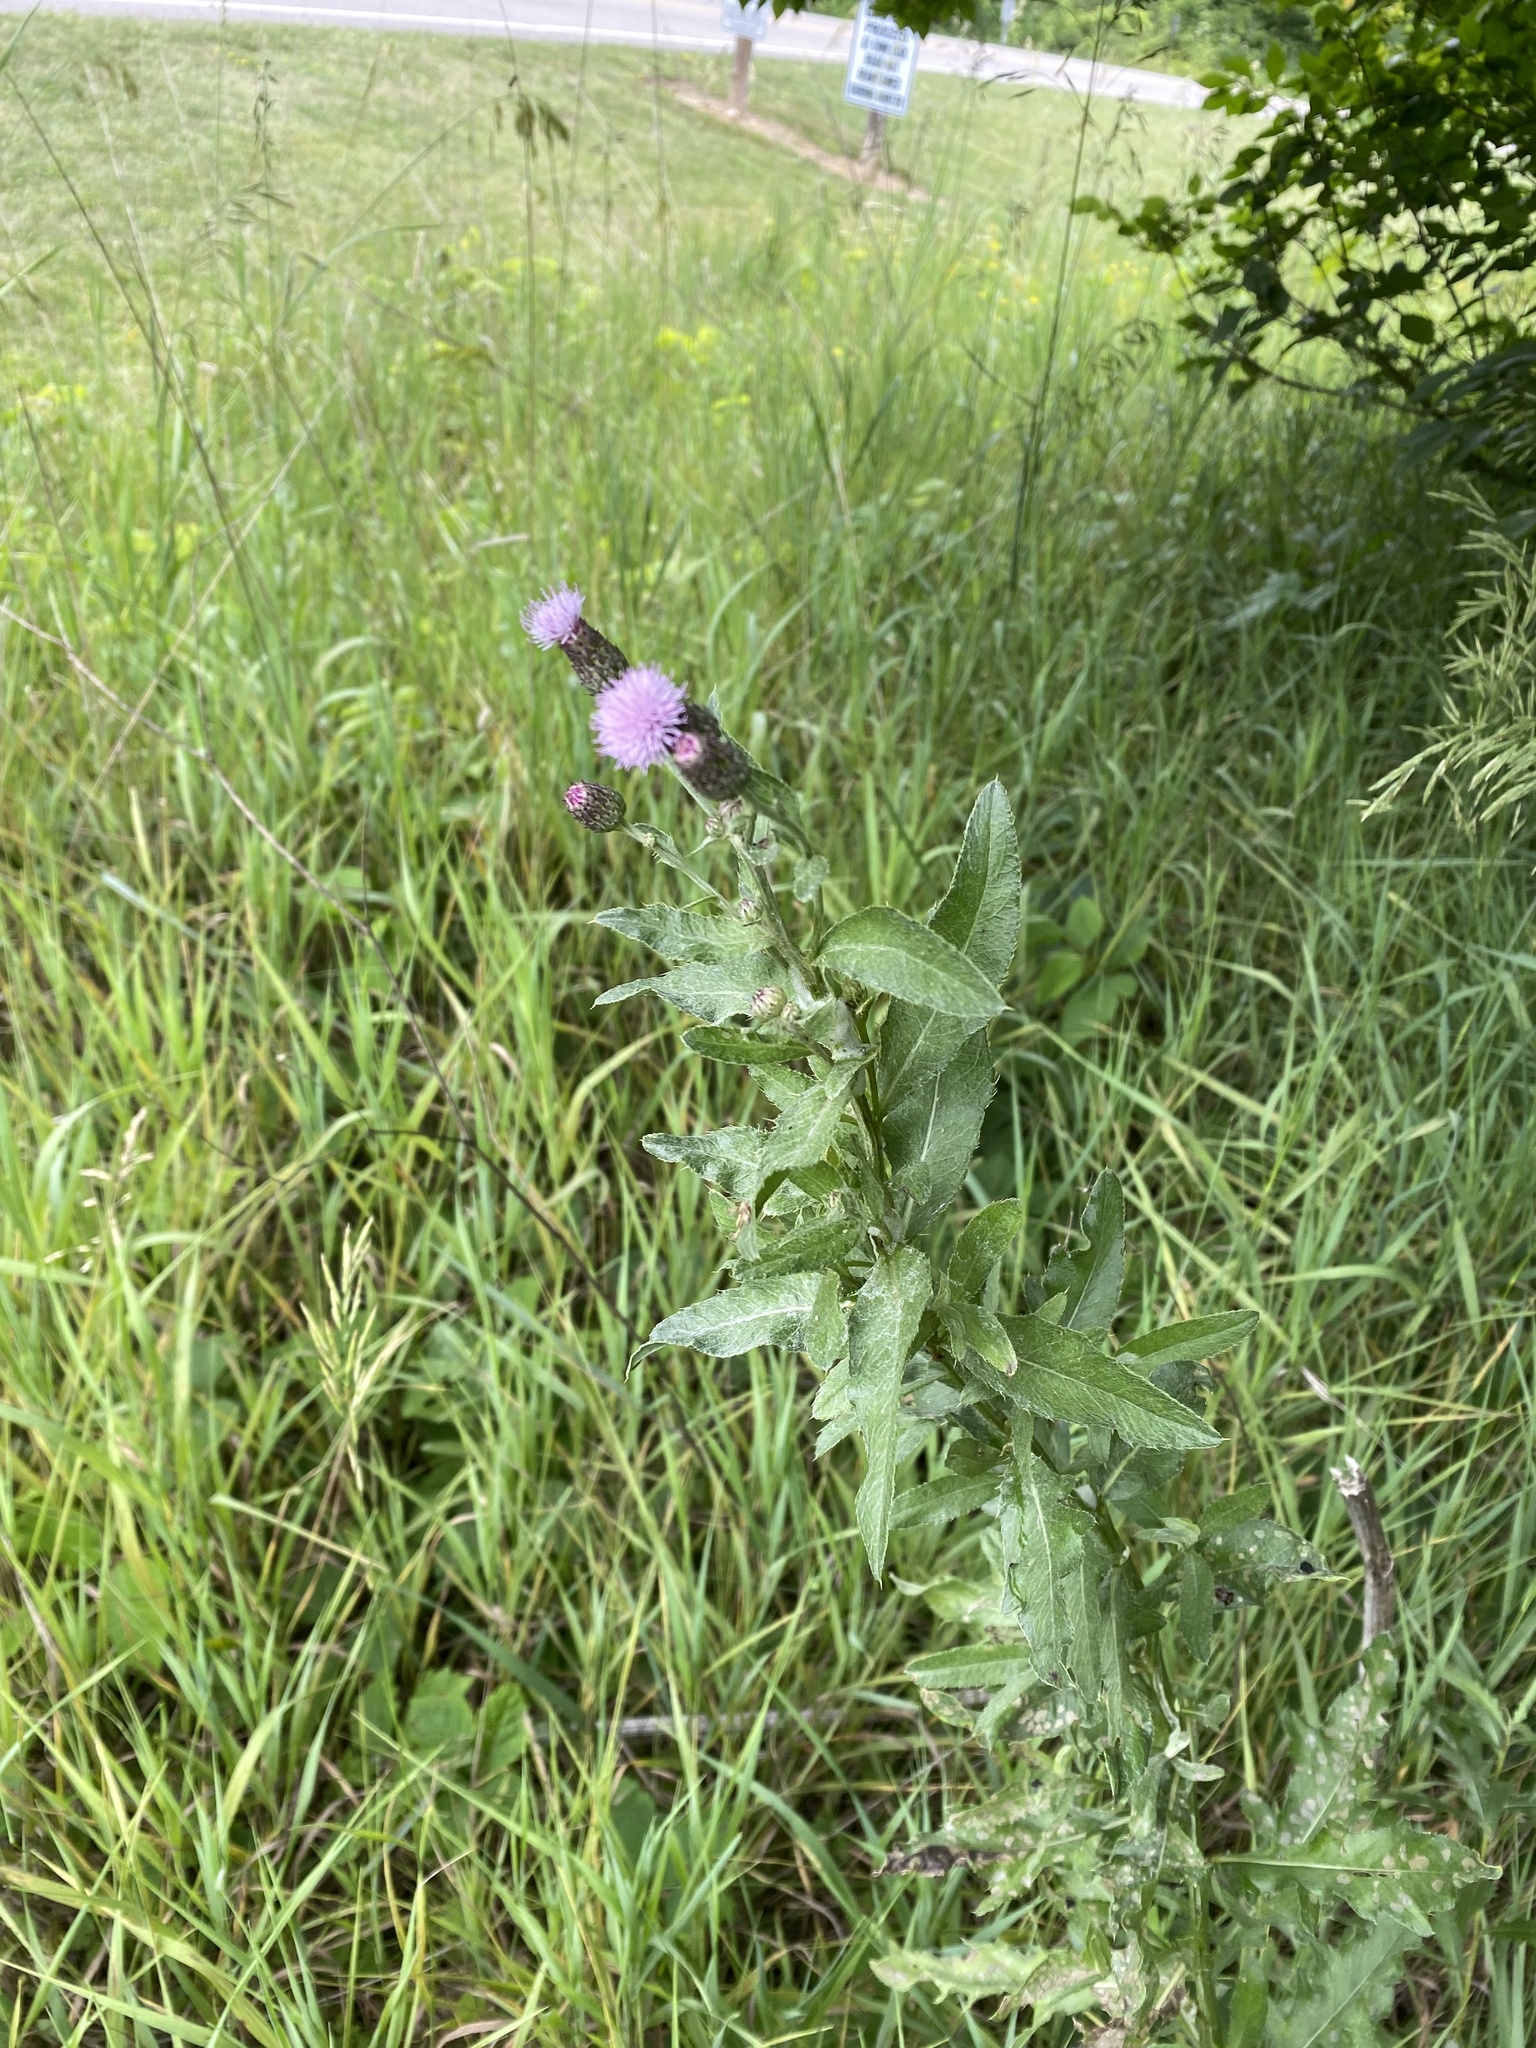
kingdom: Plantae
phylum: Tracheophyta
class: Magnoliopsida
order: Asterales
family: Asteraceae
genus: Cirsium
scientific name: Cirsium arvense
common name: Creeping thistle
